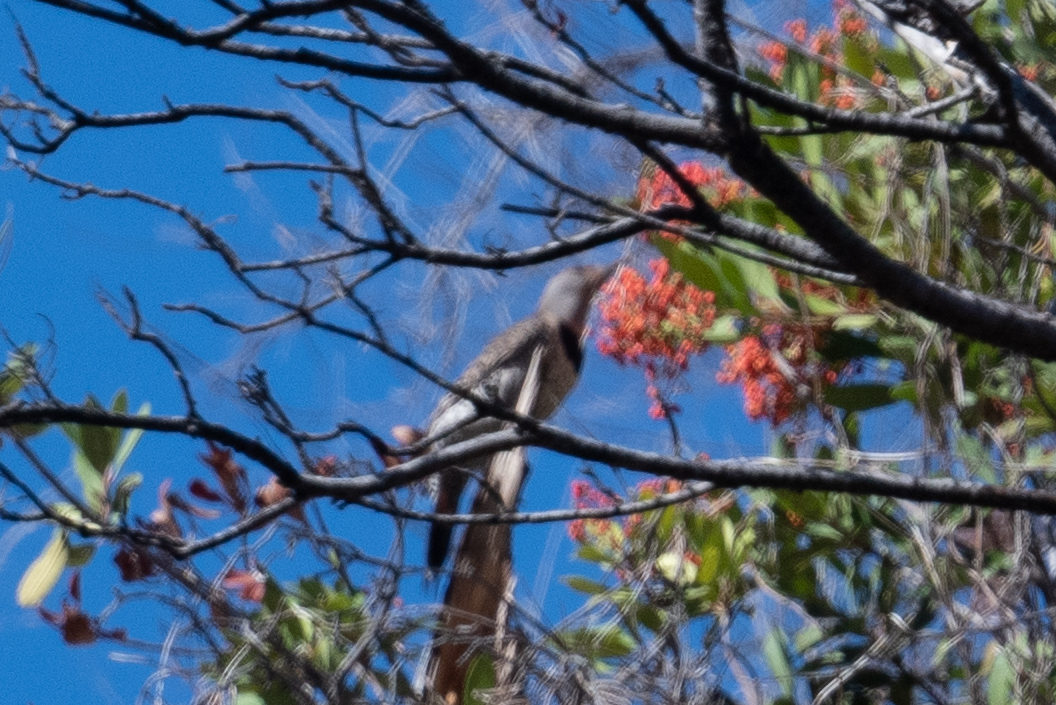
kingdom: Animalia
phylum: Chordata
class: Aves
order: Piciformes
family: Picidae
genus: Colaptes
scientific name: Colaptes auratus
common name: Northern flicker
